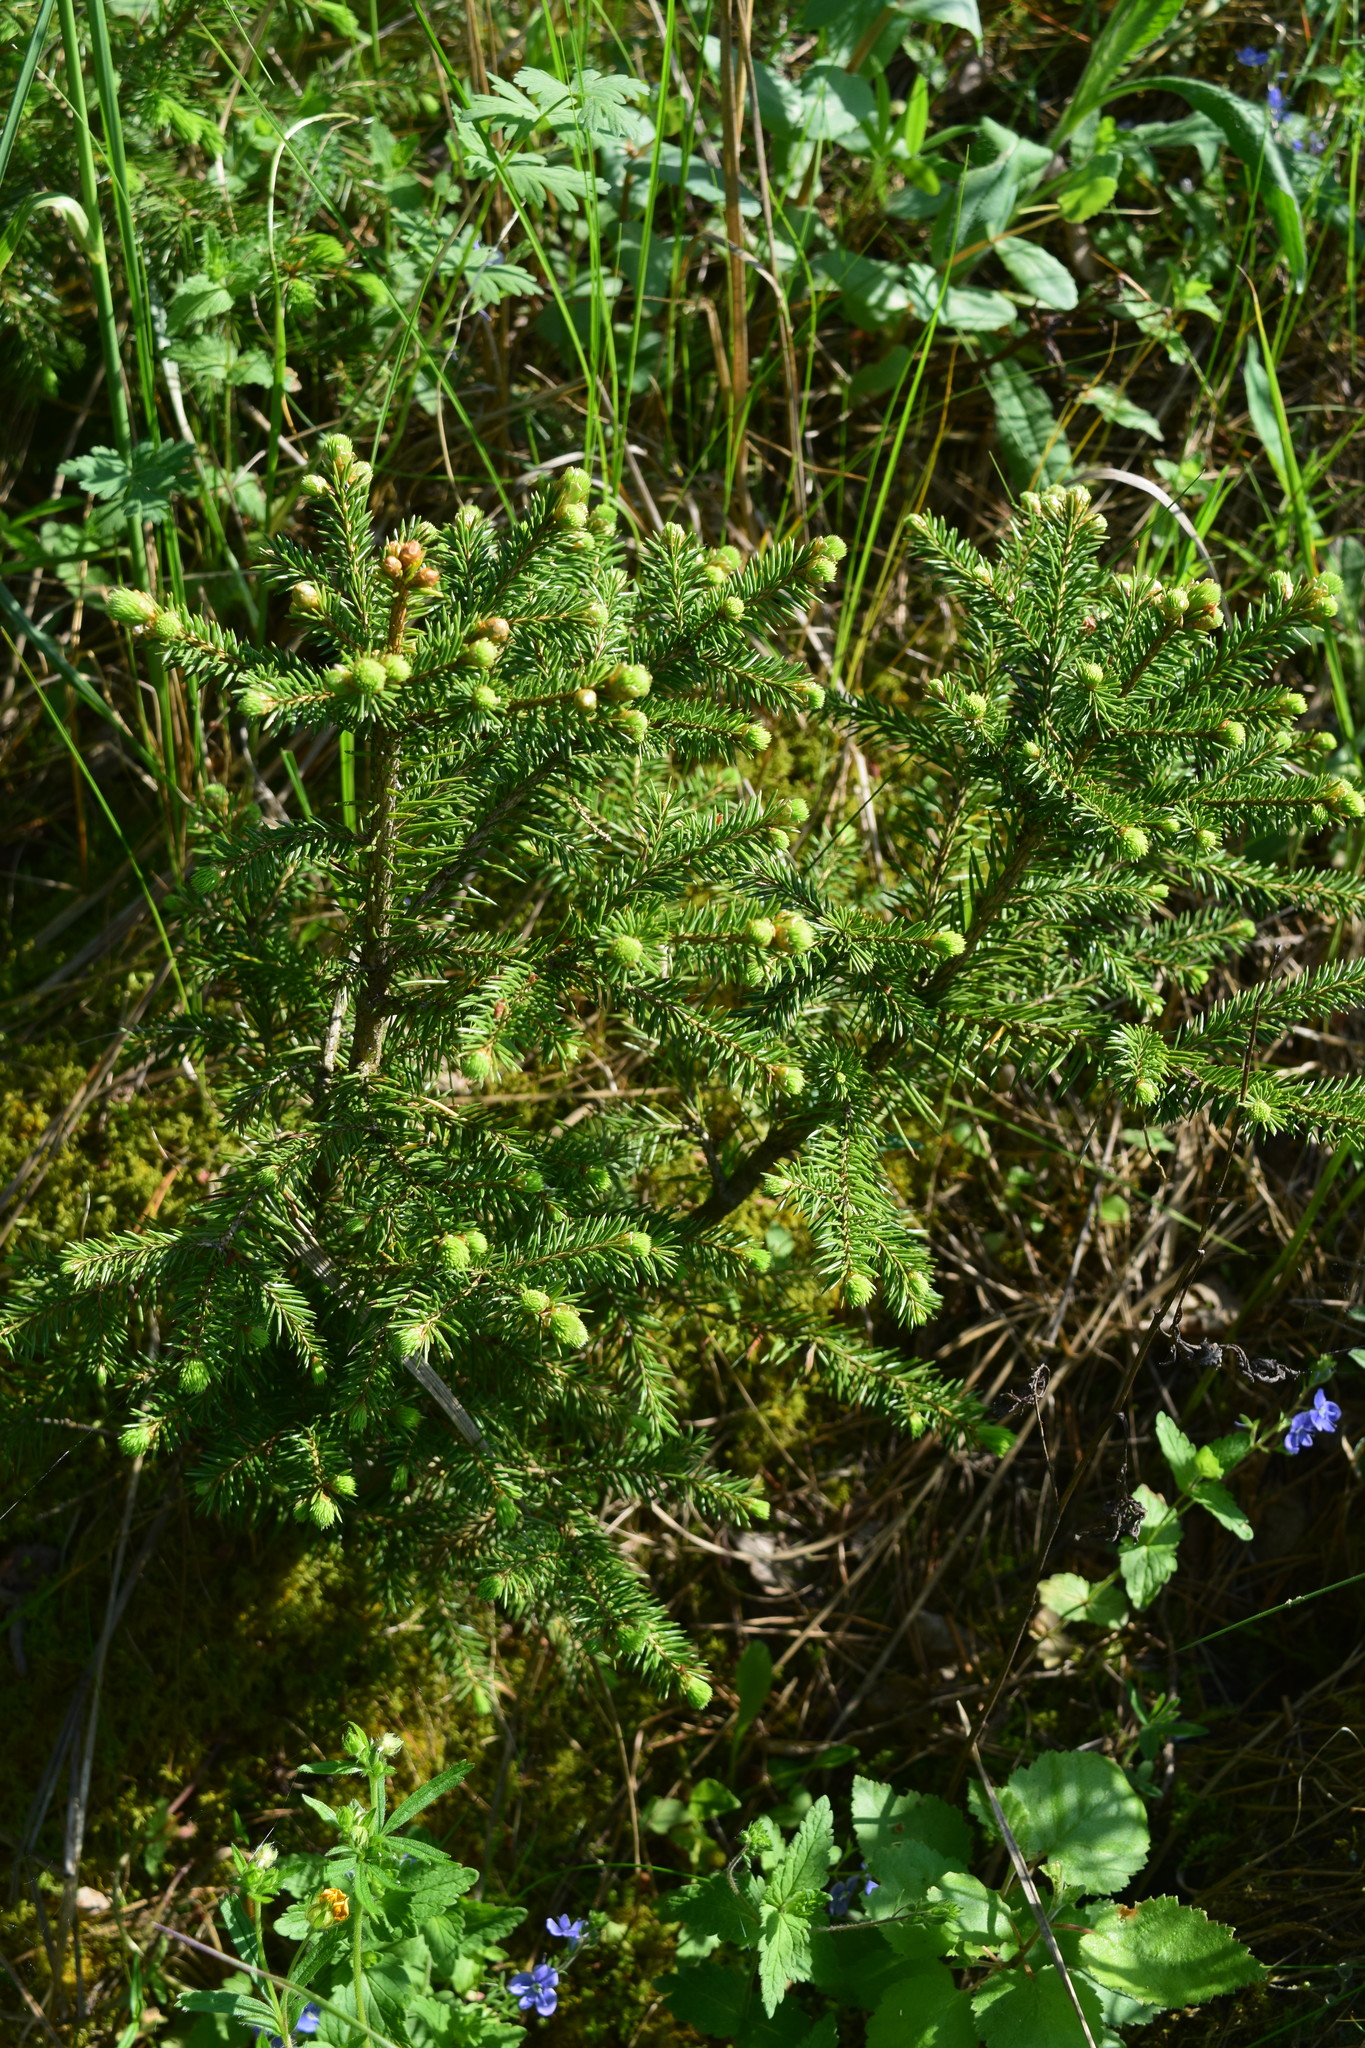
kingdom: Plantae
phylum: Tracheophyta
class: Pinopsida
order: Pinales
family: Pinaceae
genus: Picea
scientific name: Picea abies
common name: Norway spruce
